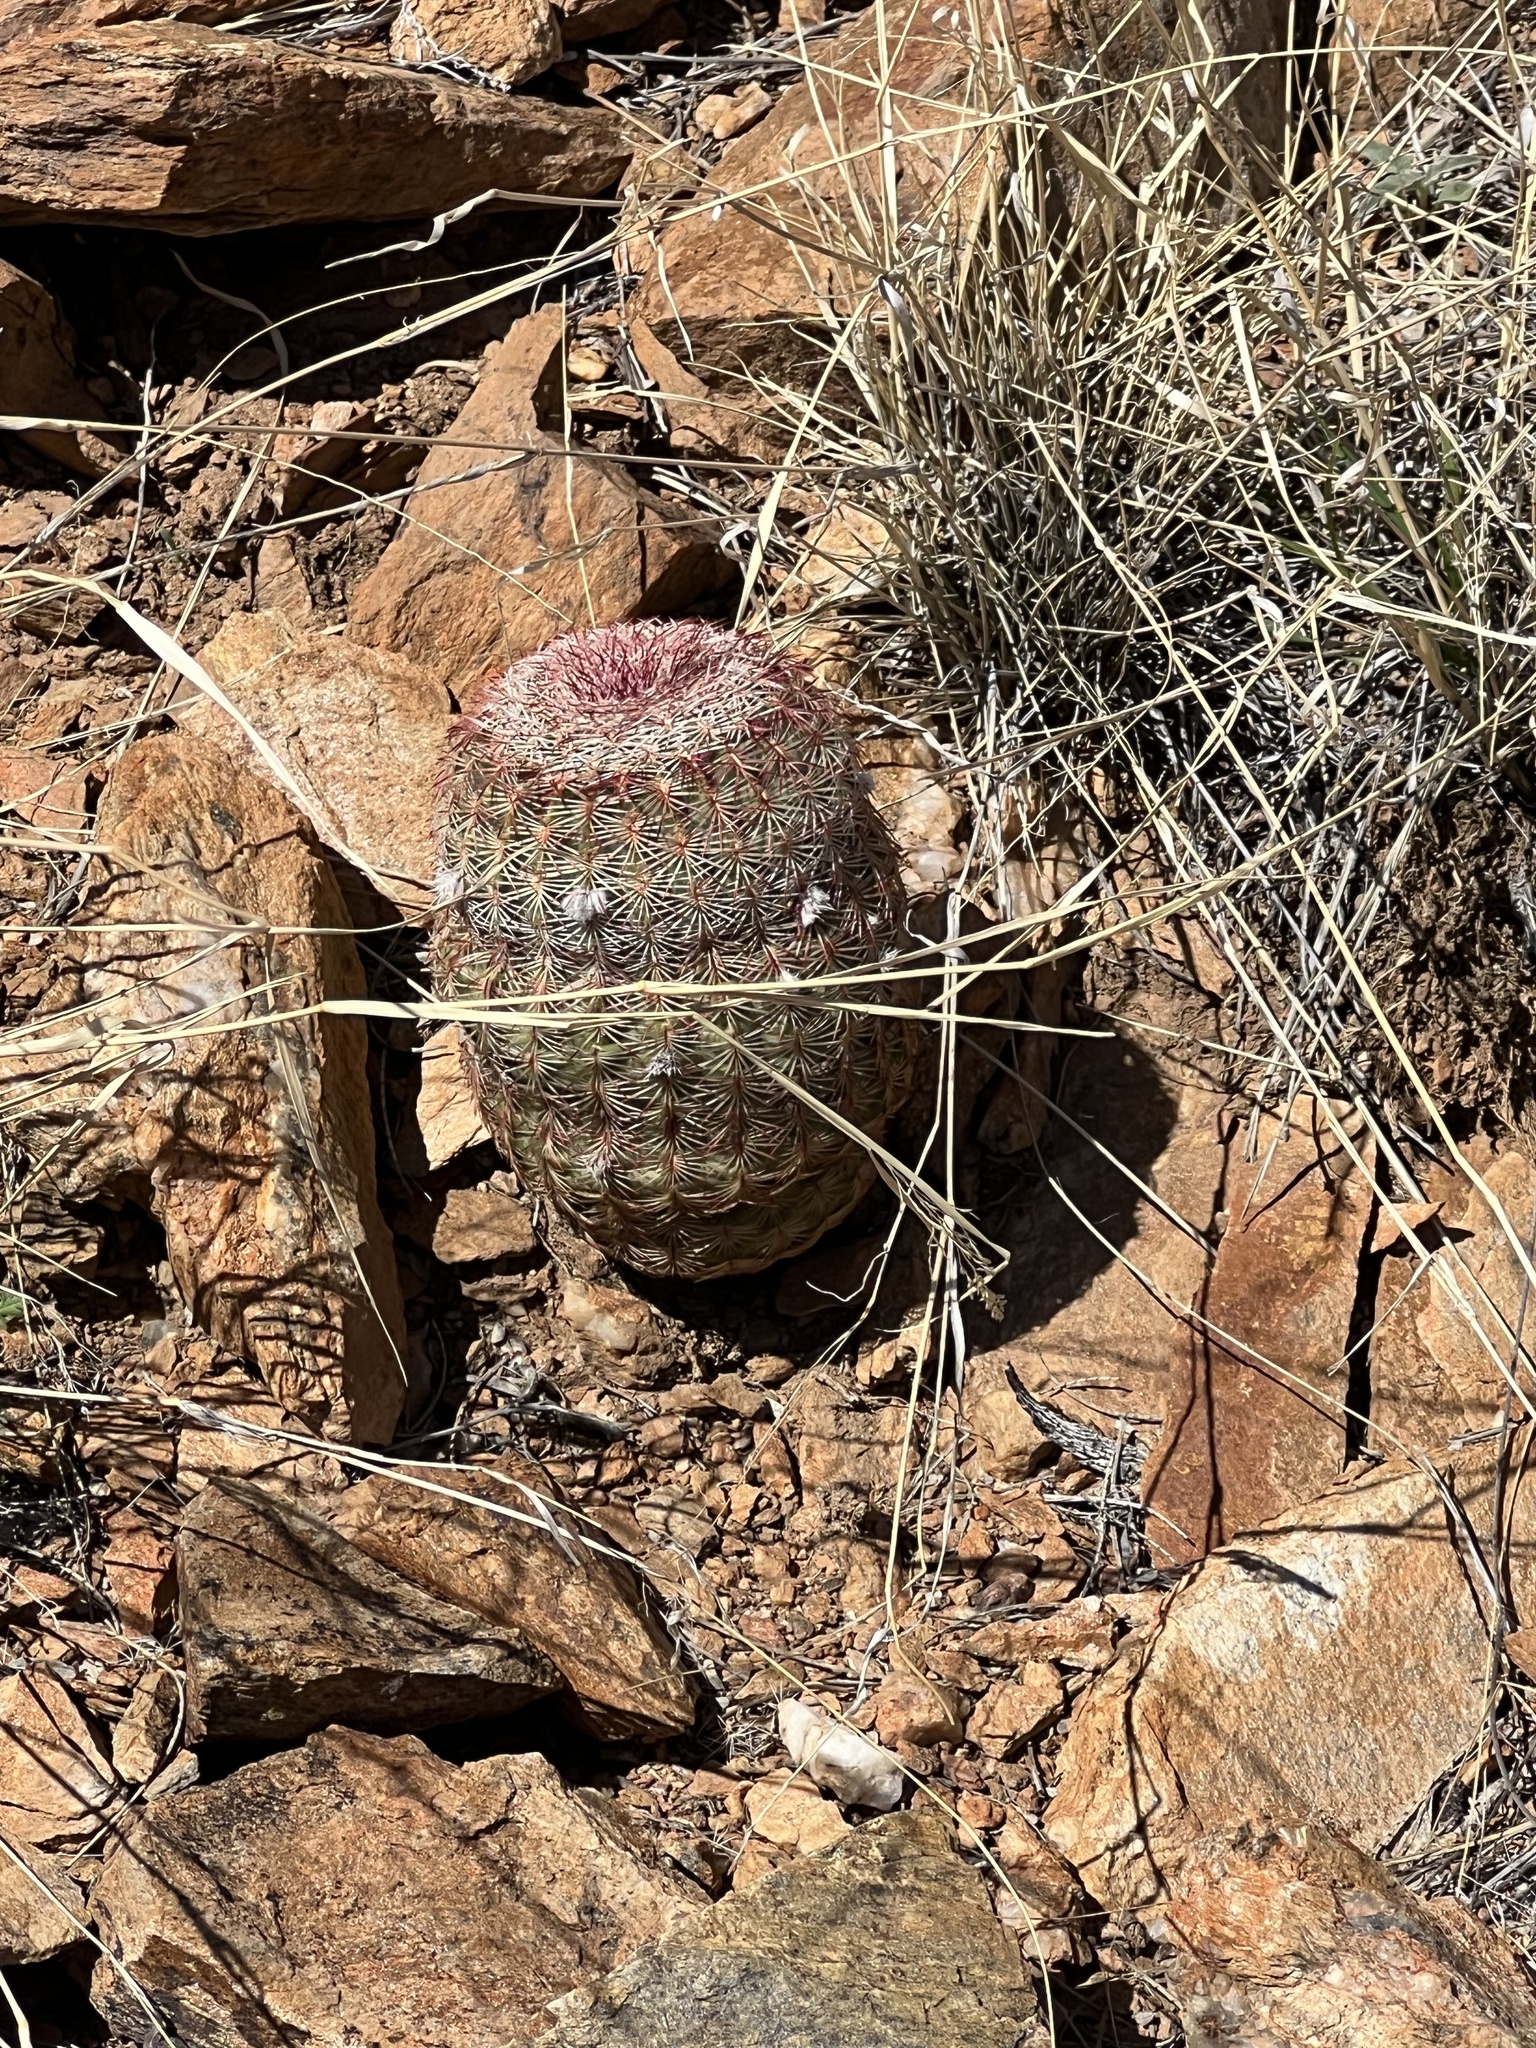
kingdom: Plantae
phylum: Tracheophyta
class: Magnoliopsida
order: Caryophyllales
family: Cactaceae
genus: Echinocereus
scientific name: Echinocereus rigidissimus
